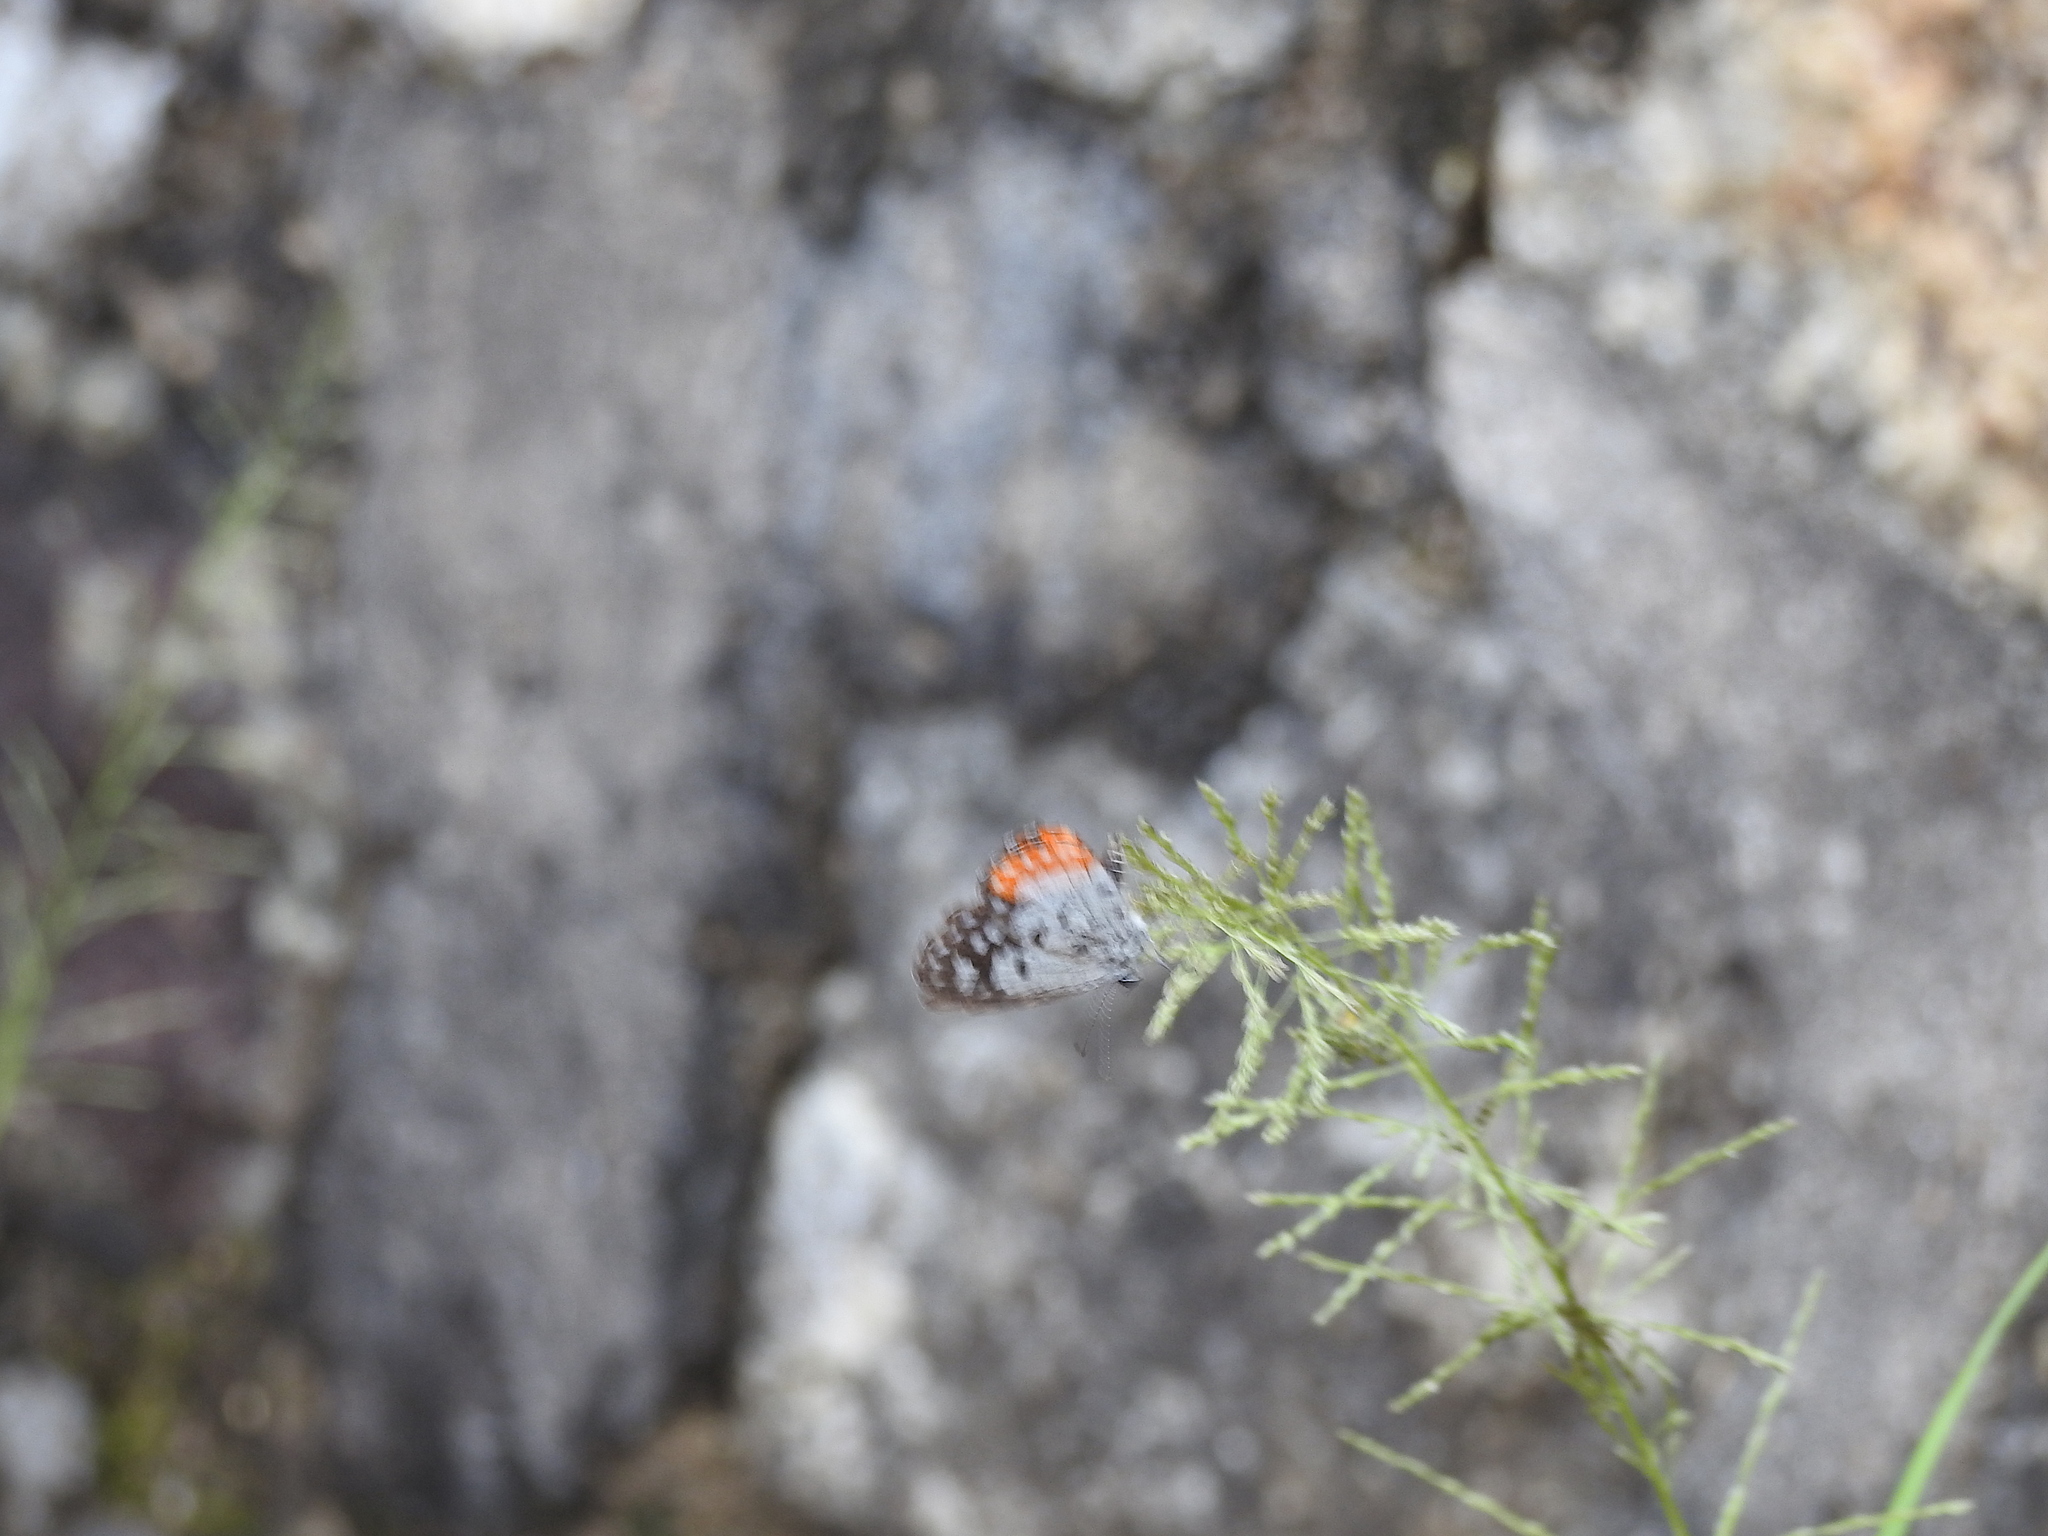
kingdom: Animalia
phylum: Arthropoda
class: Insecta
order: Lepidoptera
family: Lycaenidae
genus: Talicada
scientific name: Talicada nyseus
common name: Red pierrot
